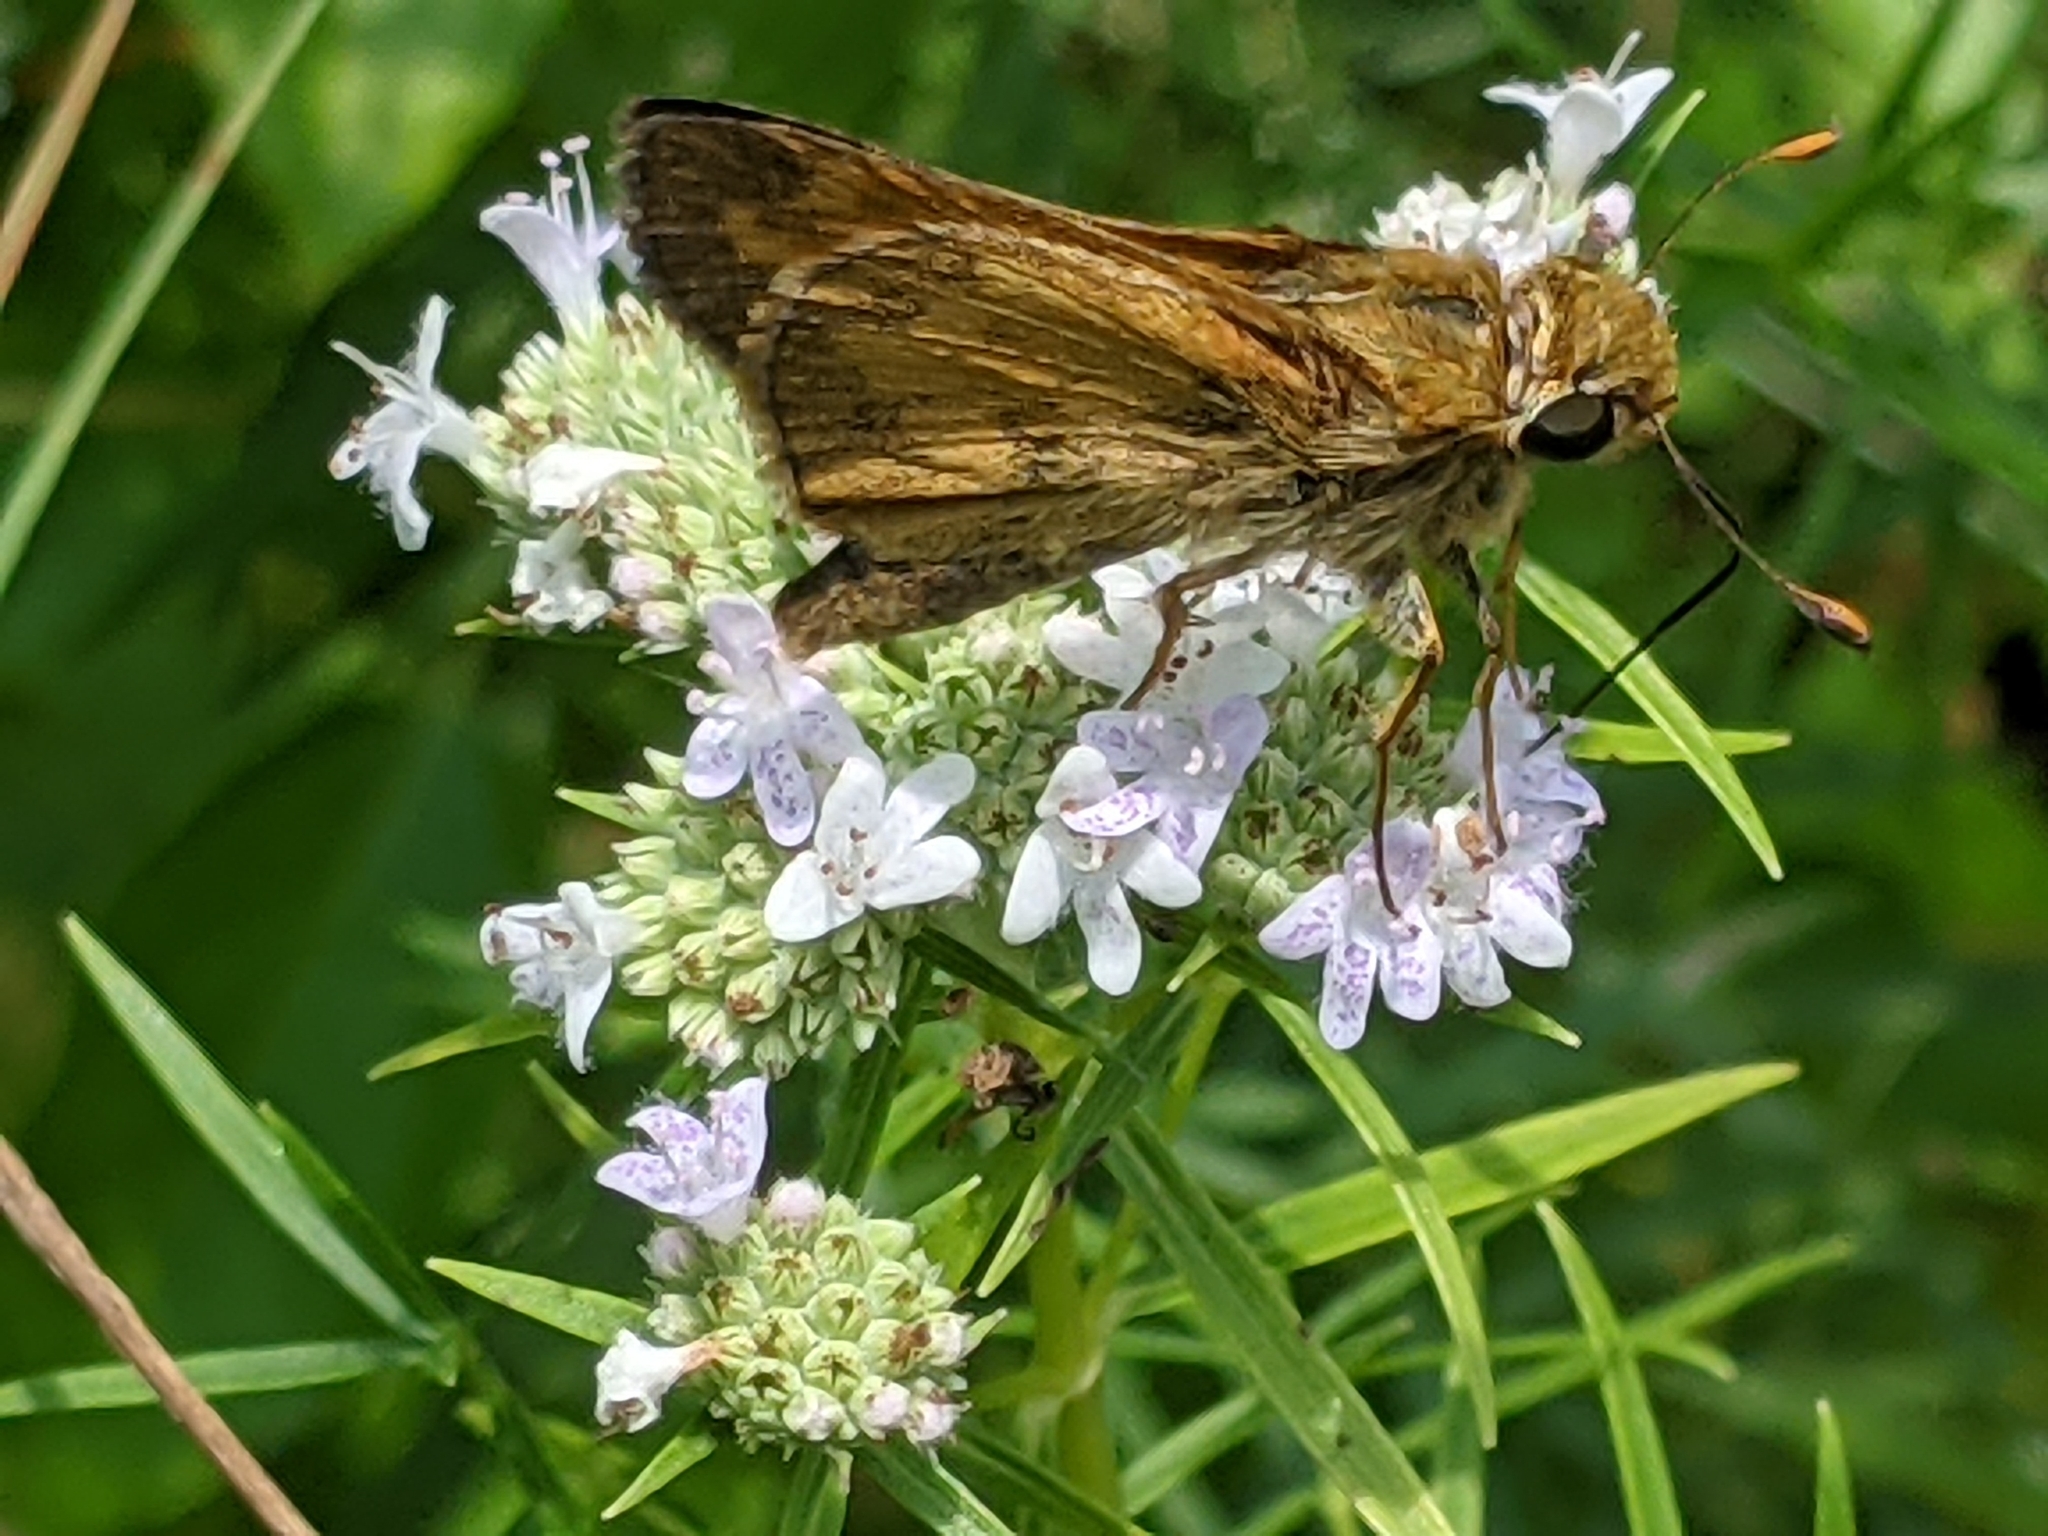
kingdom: Animalia
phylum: Arthropoda
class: Insecta
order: Lepidoptera
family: Hesperiidae
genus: Atalopedes
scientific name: Atalopedes
